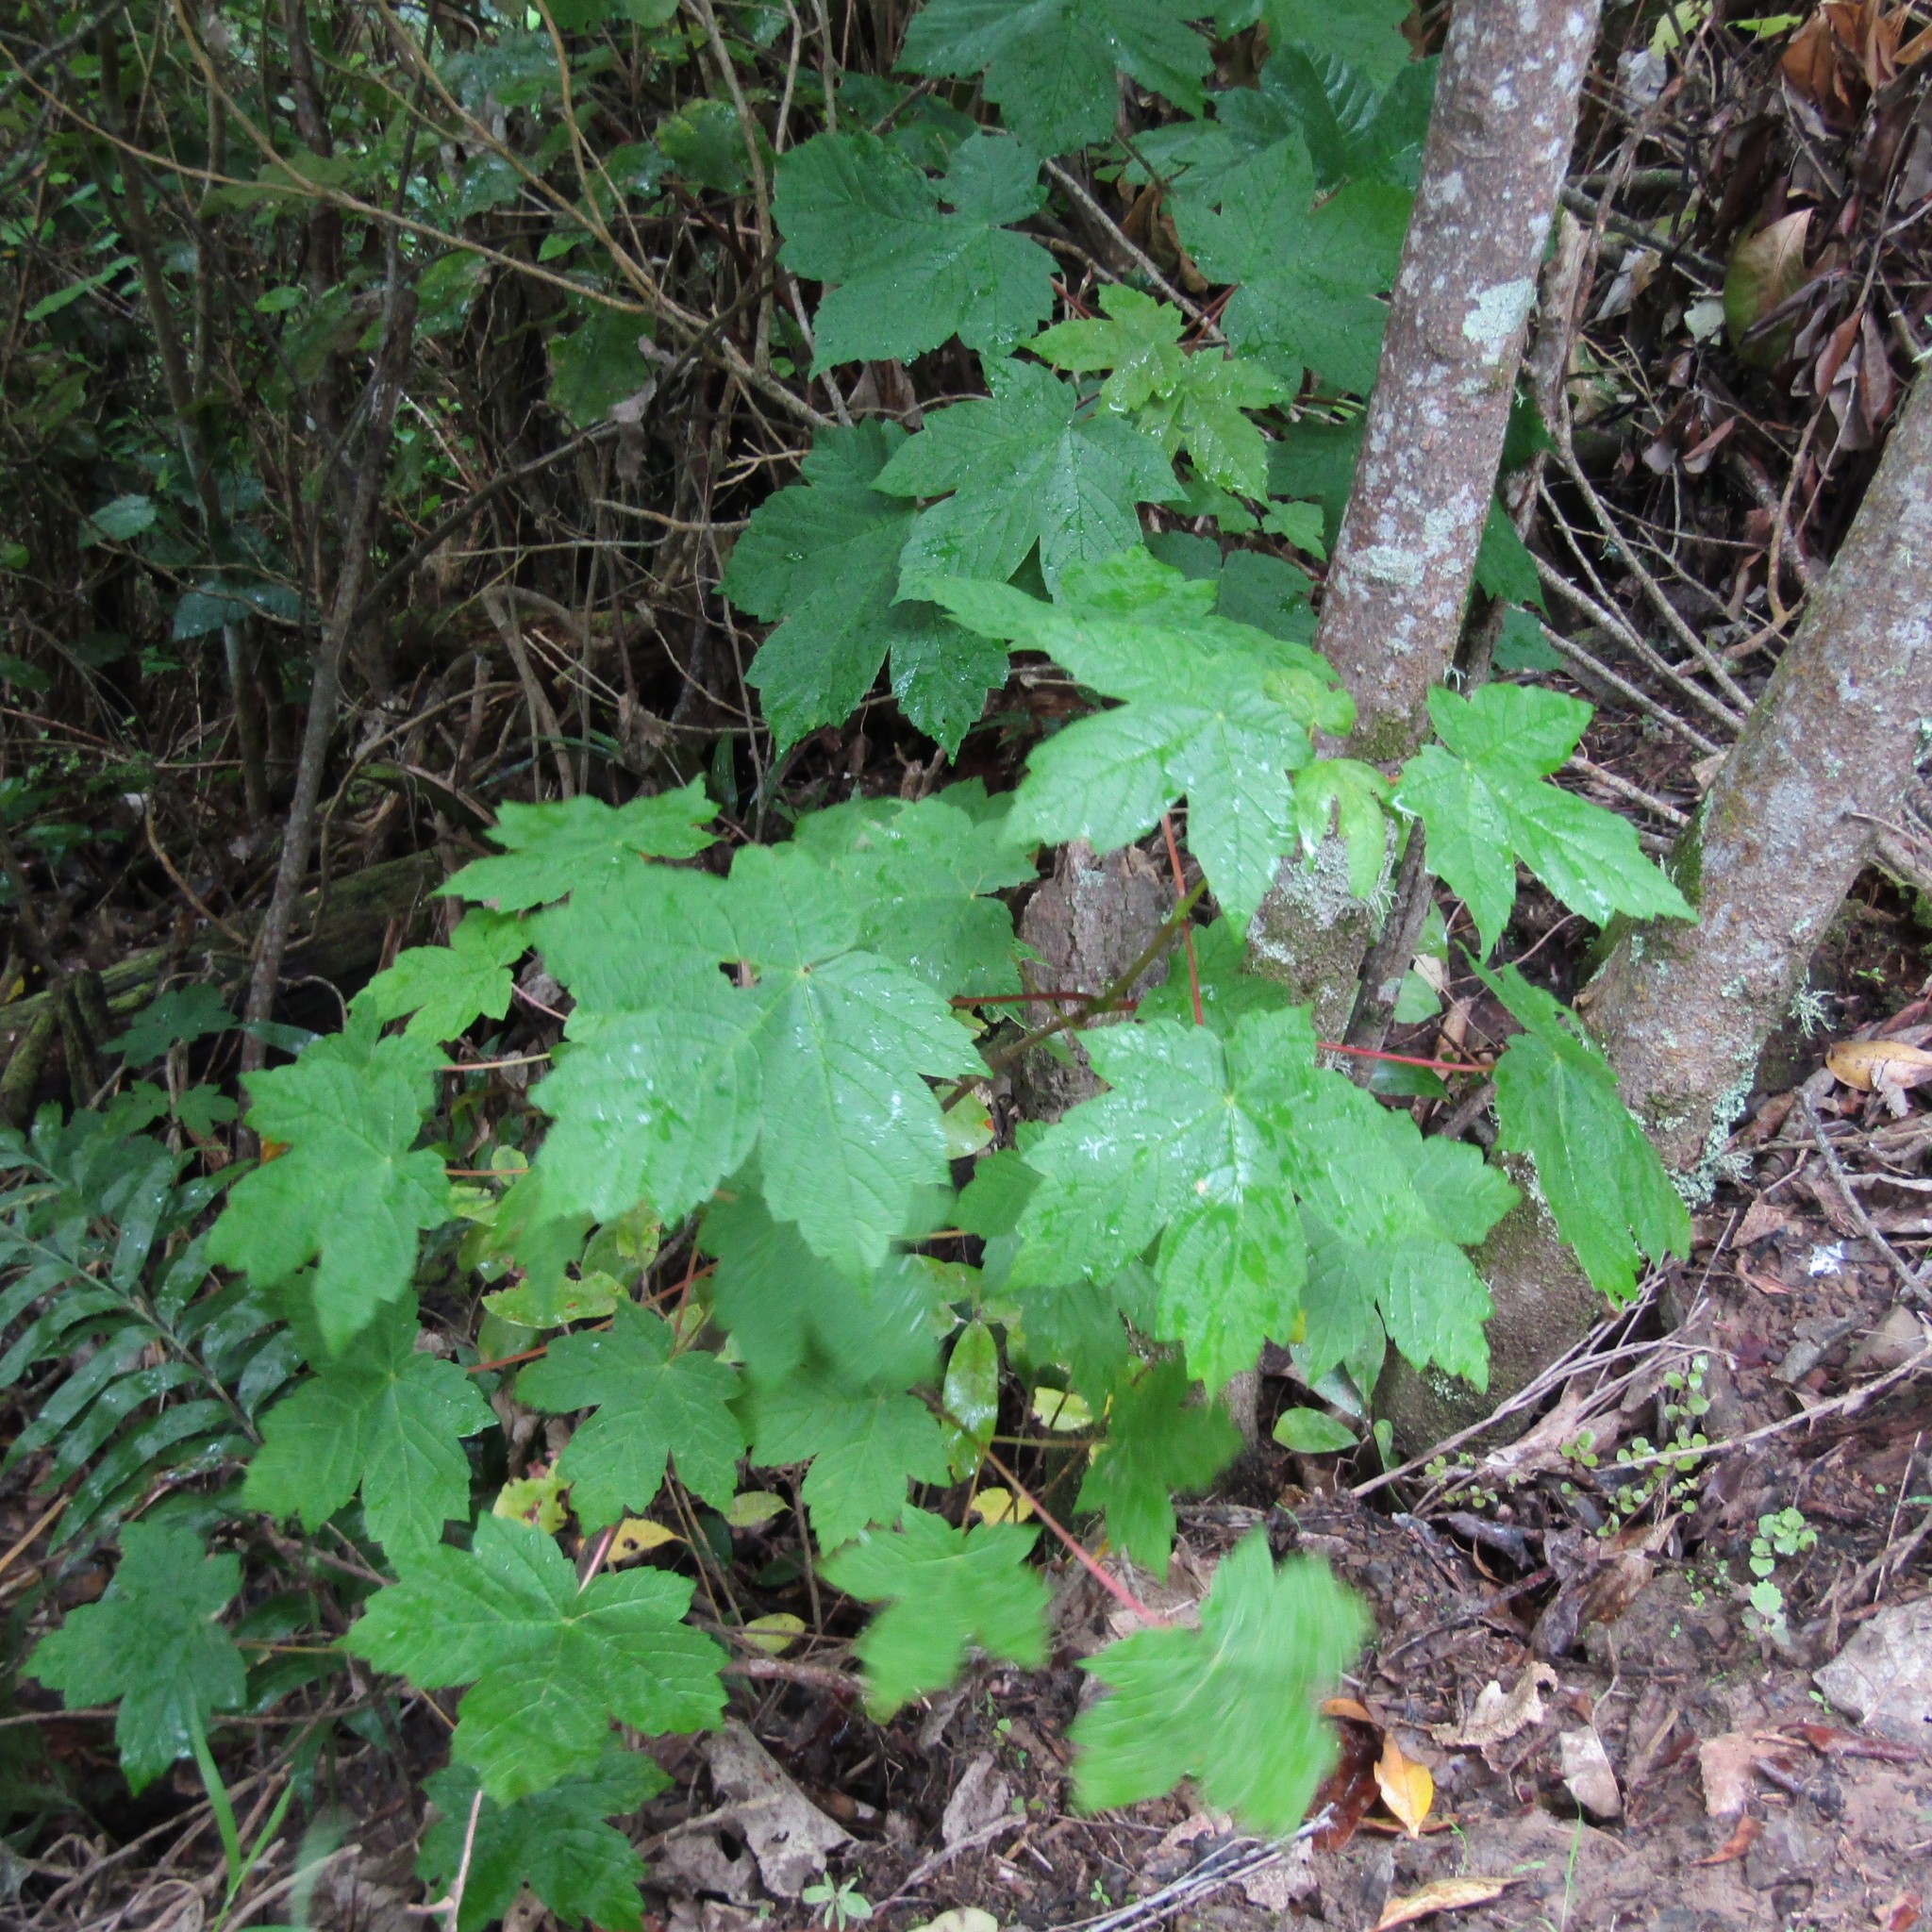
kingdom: Plantae
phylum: Tracheophyta
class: Magnoliopsida
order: Sapindales
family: Sapindaceae
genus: Acer
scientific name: Acer pseudoplatanus
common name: Sycamore
